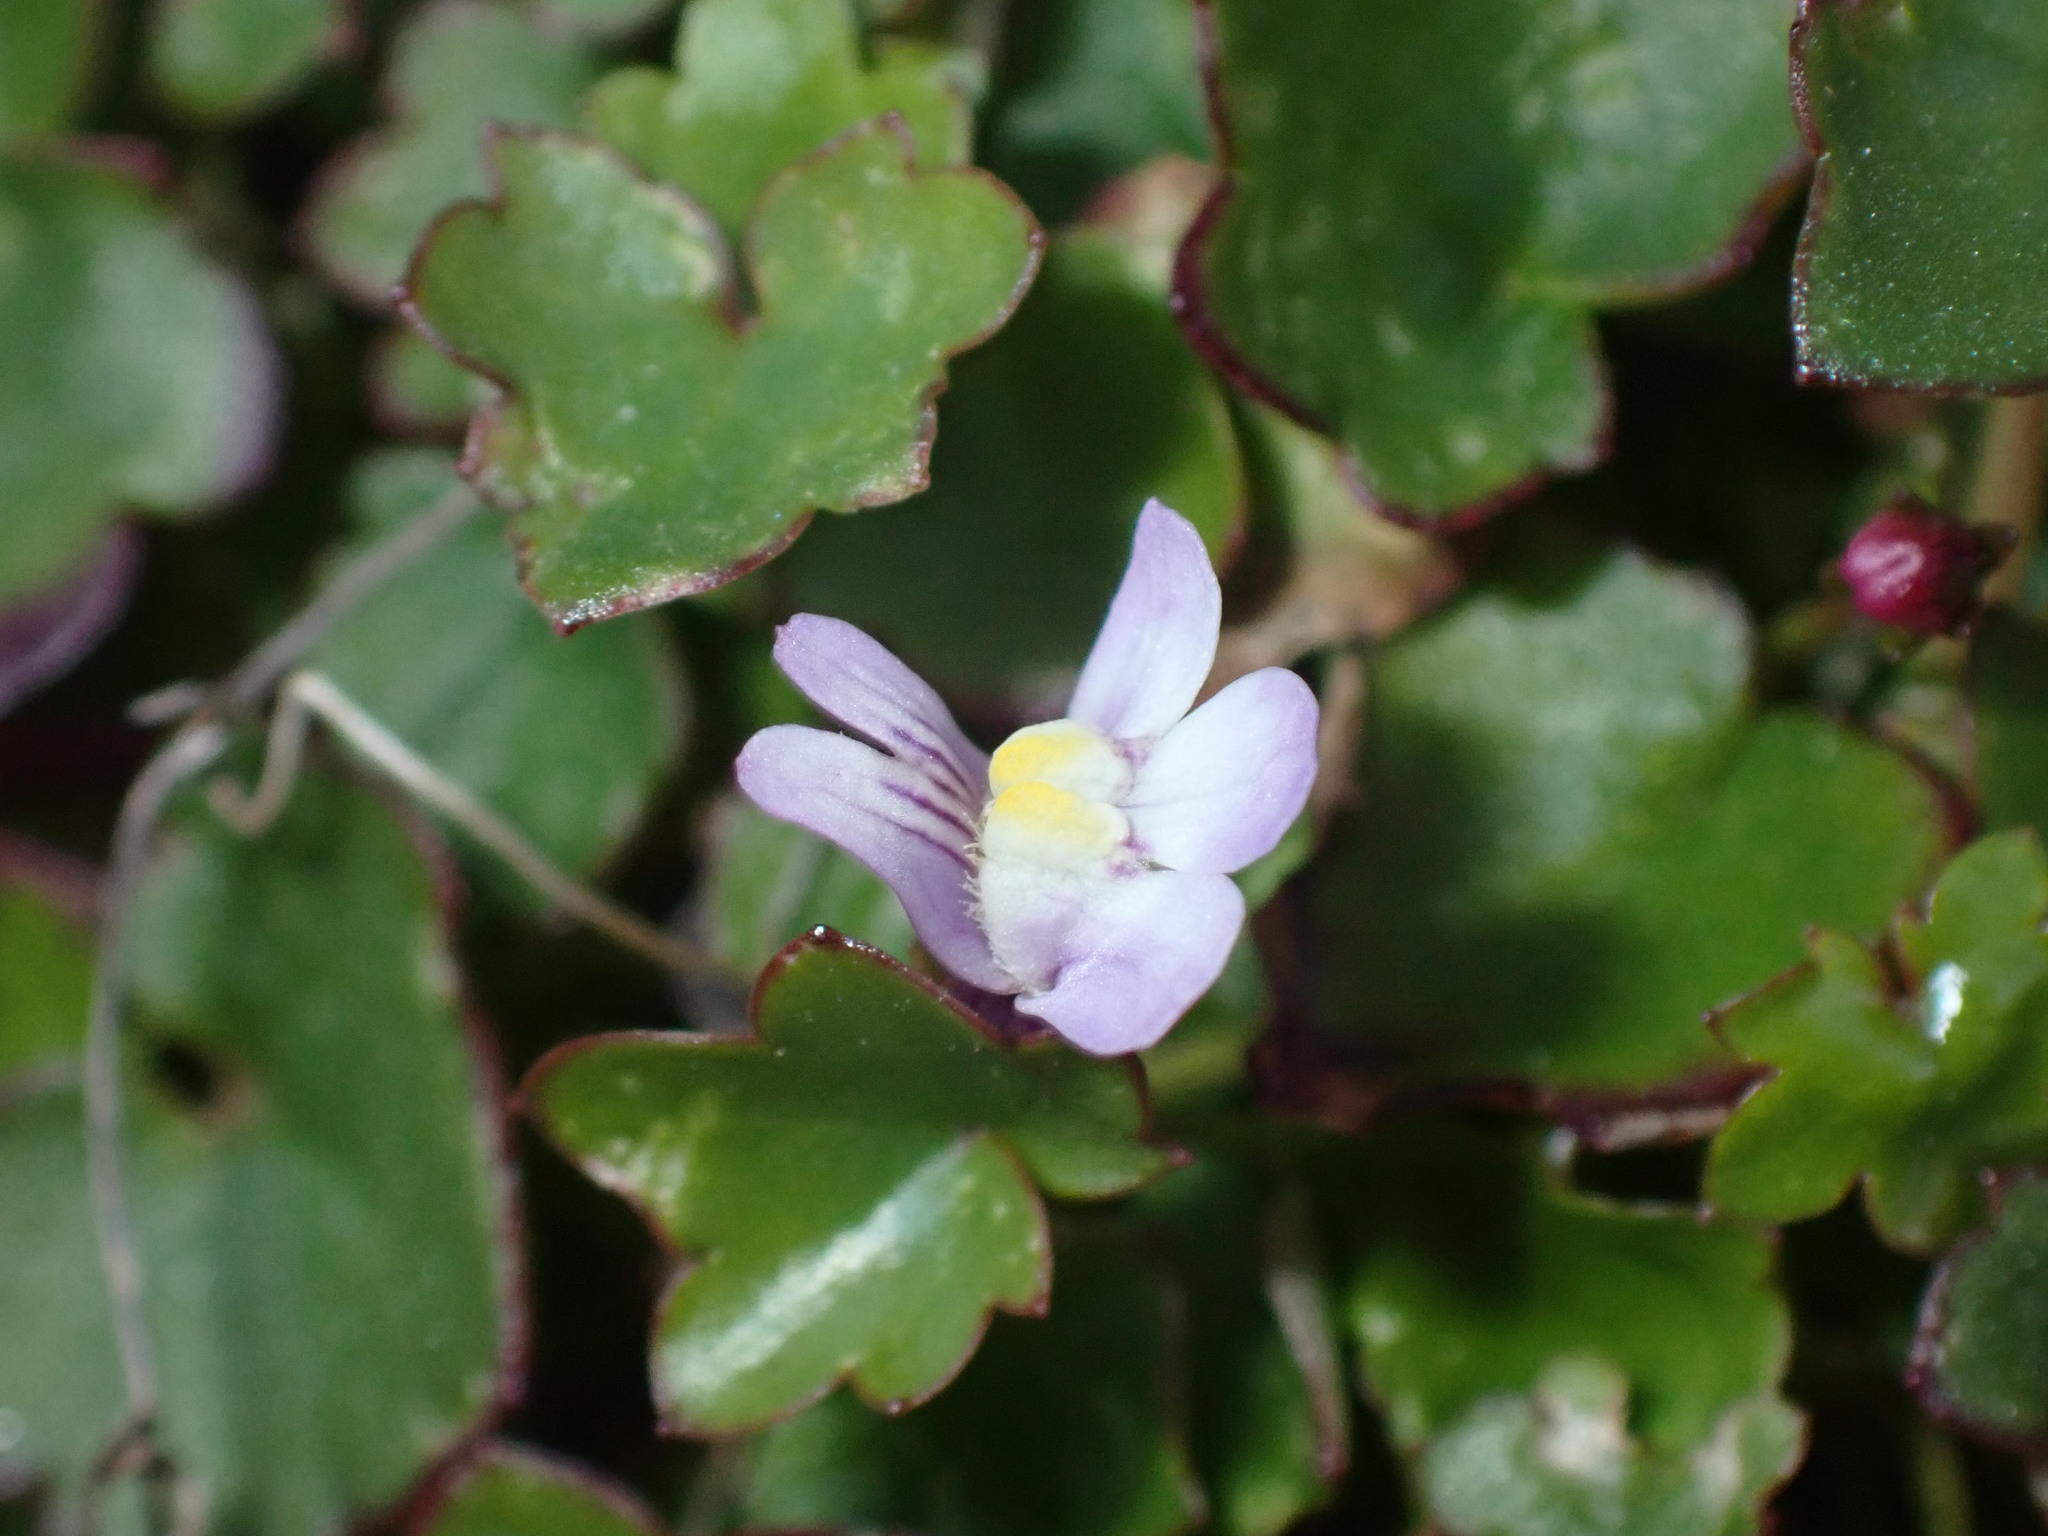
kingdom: Plantae
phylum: Tracheophyta
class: Magnoliopsida
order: Lamiales
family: Plantaginaceae
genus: Cymbalaria
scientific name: Cymbalaria muralis
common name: Ivy-leaved toadflax
